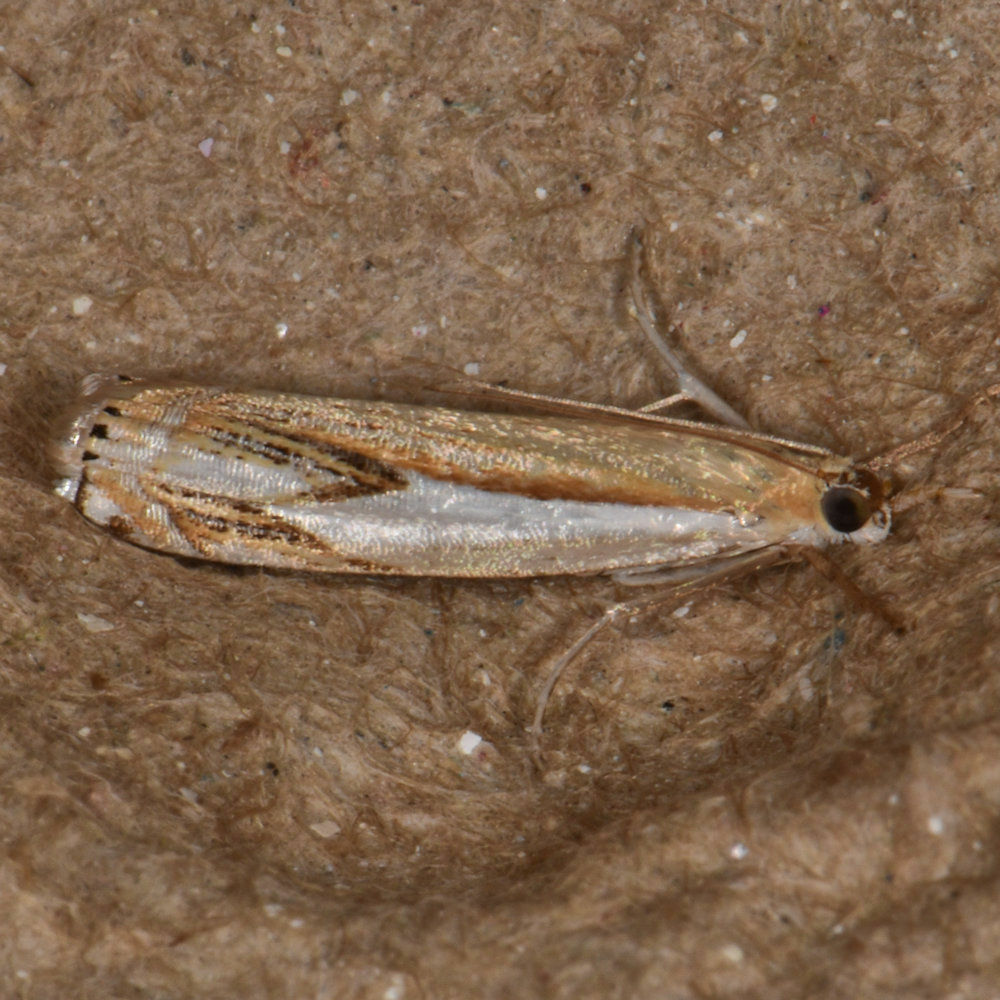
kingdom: Animalia
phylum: Arthropoda
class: Insecta
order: Lepidoptera
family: Crambidae
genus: Crambus
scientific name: Crambus agitatellus
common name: Double-banded grass-veneer
